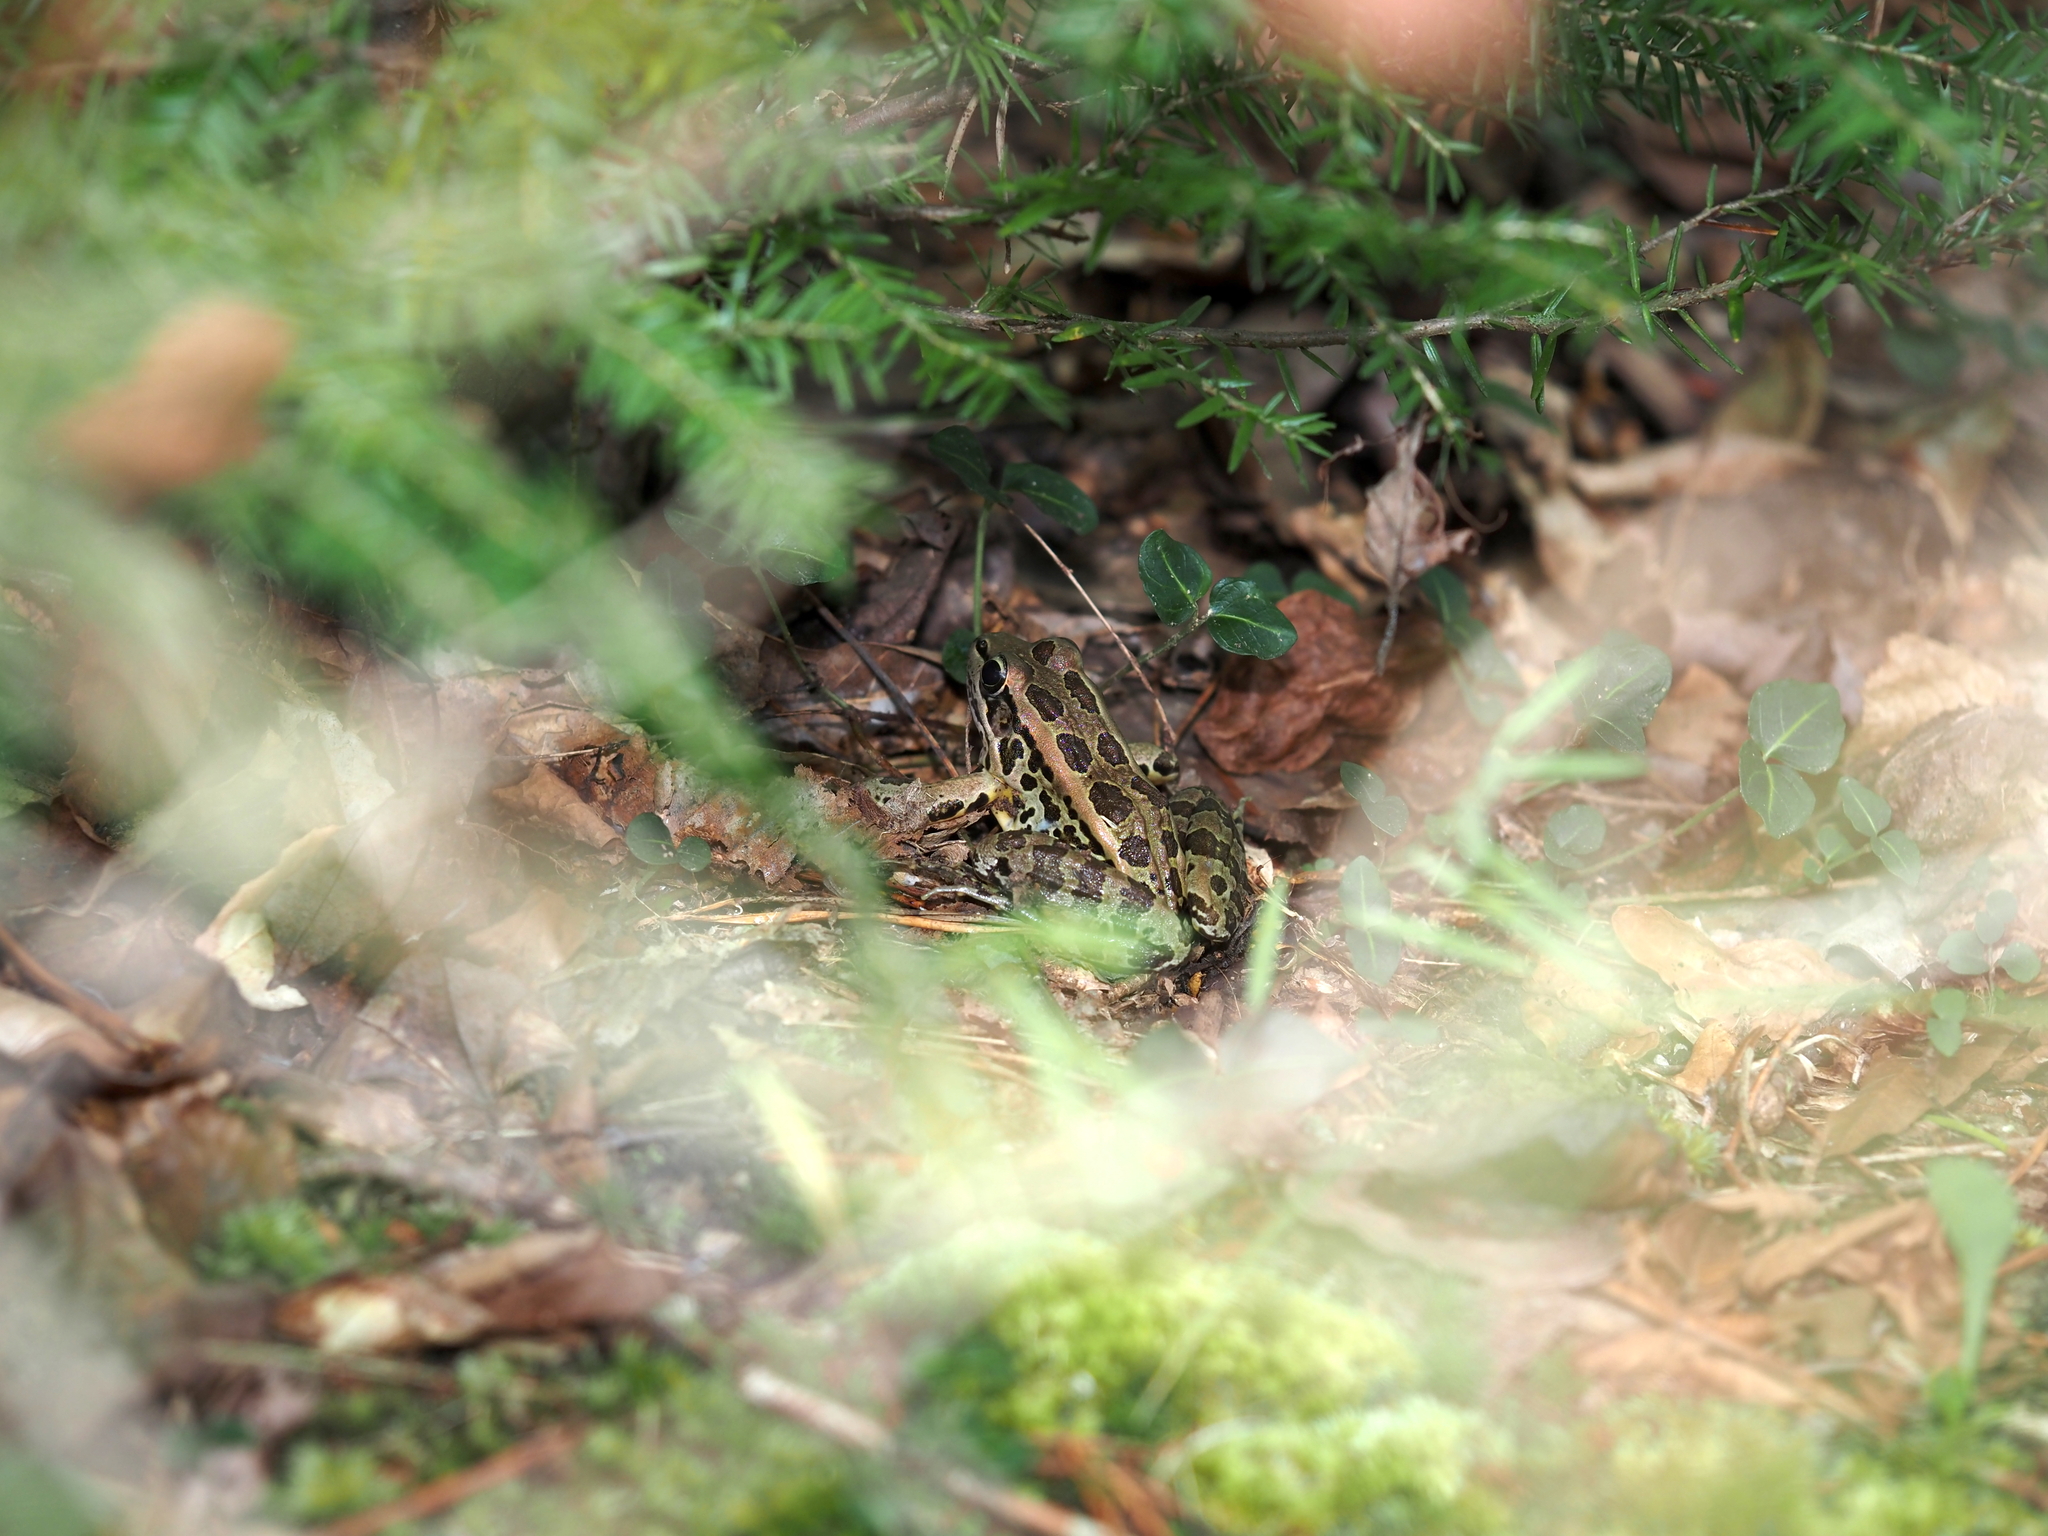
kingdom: Animalia
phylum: Chordata
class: Amphibia
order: Anura
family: Ranidae
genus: Lithobates
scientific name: Lithobates palustris
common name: Pickerel frog
